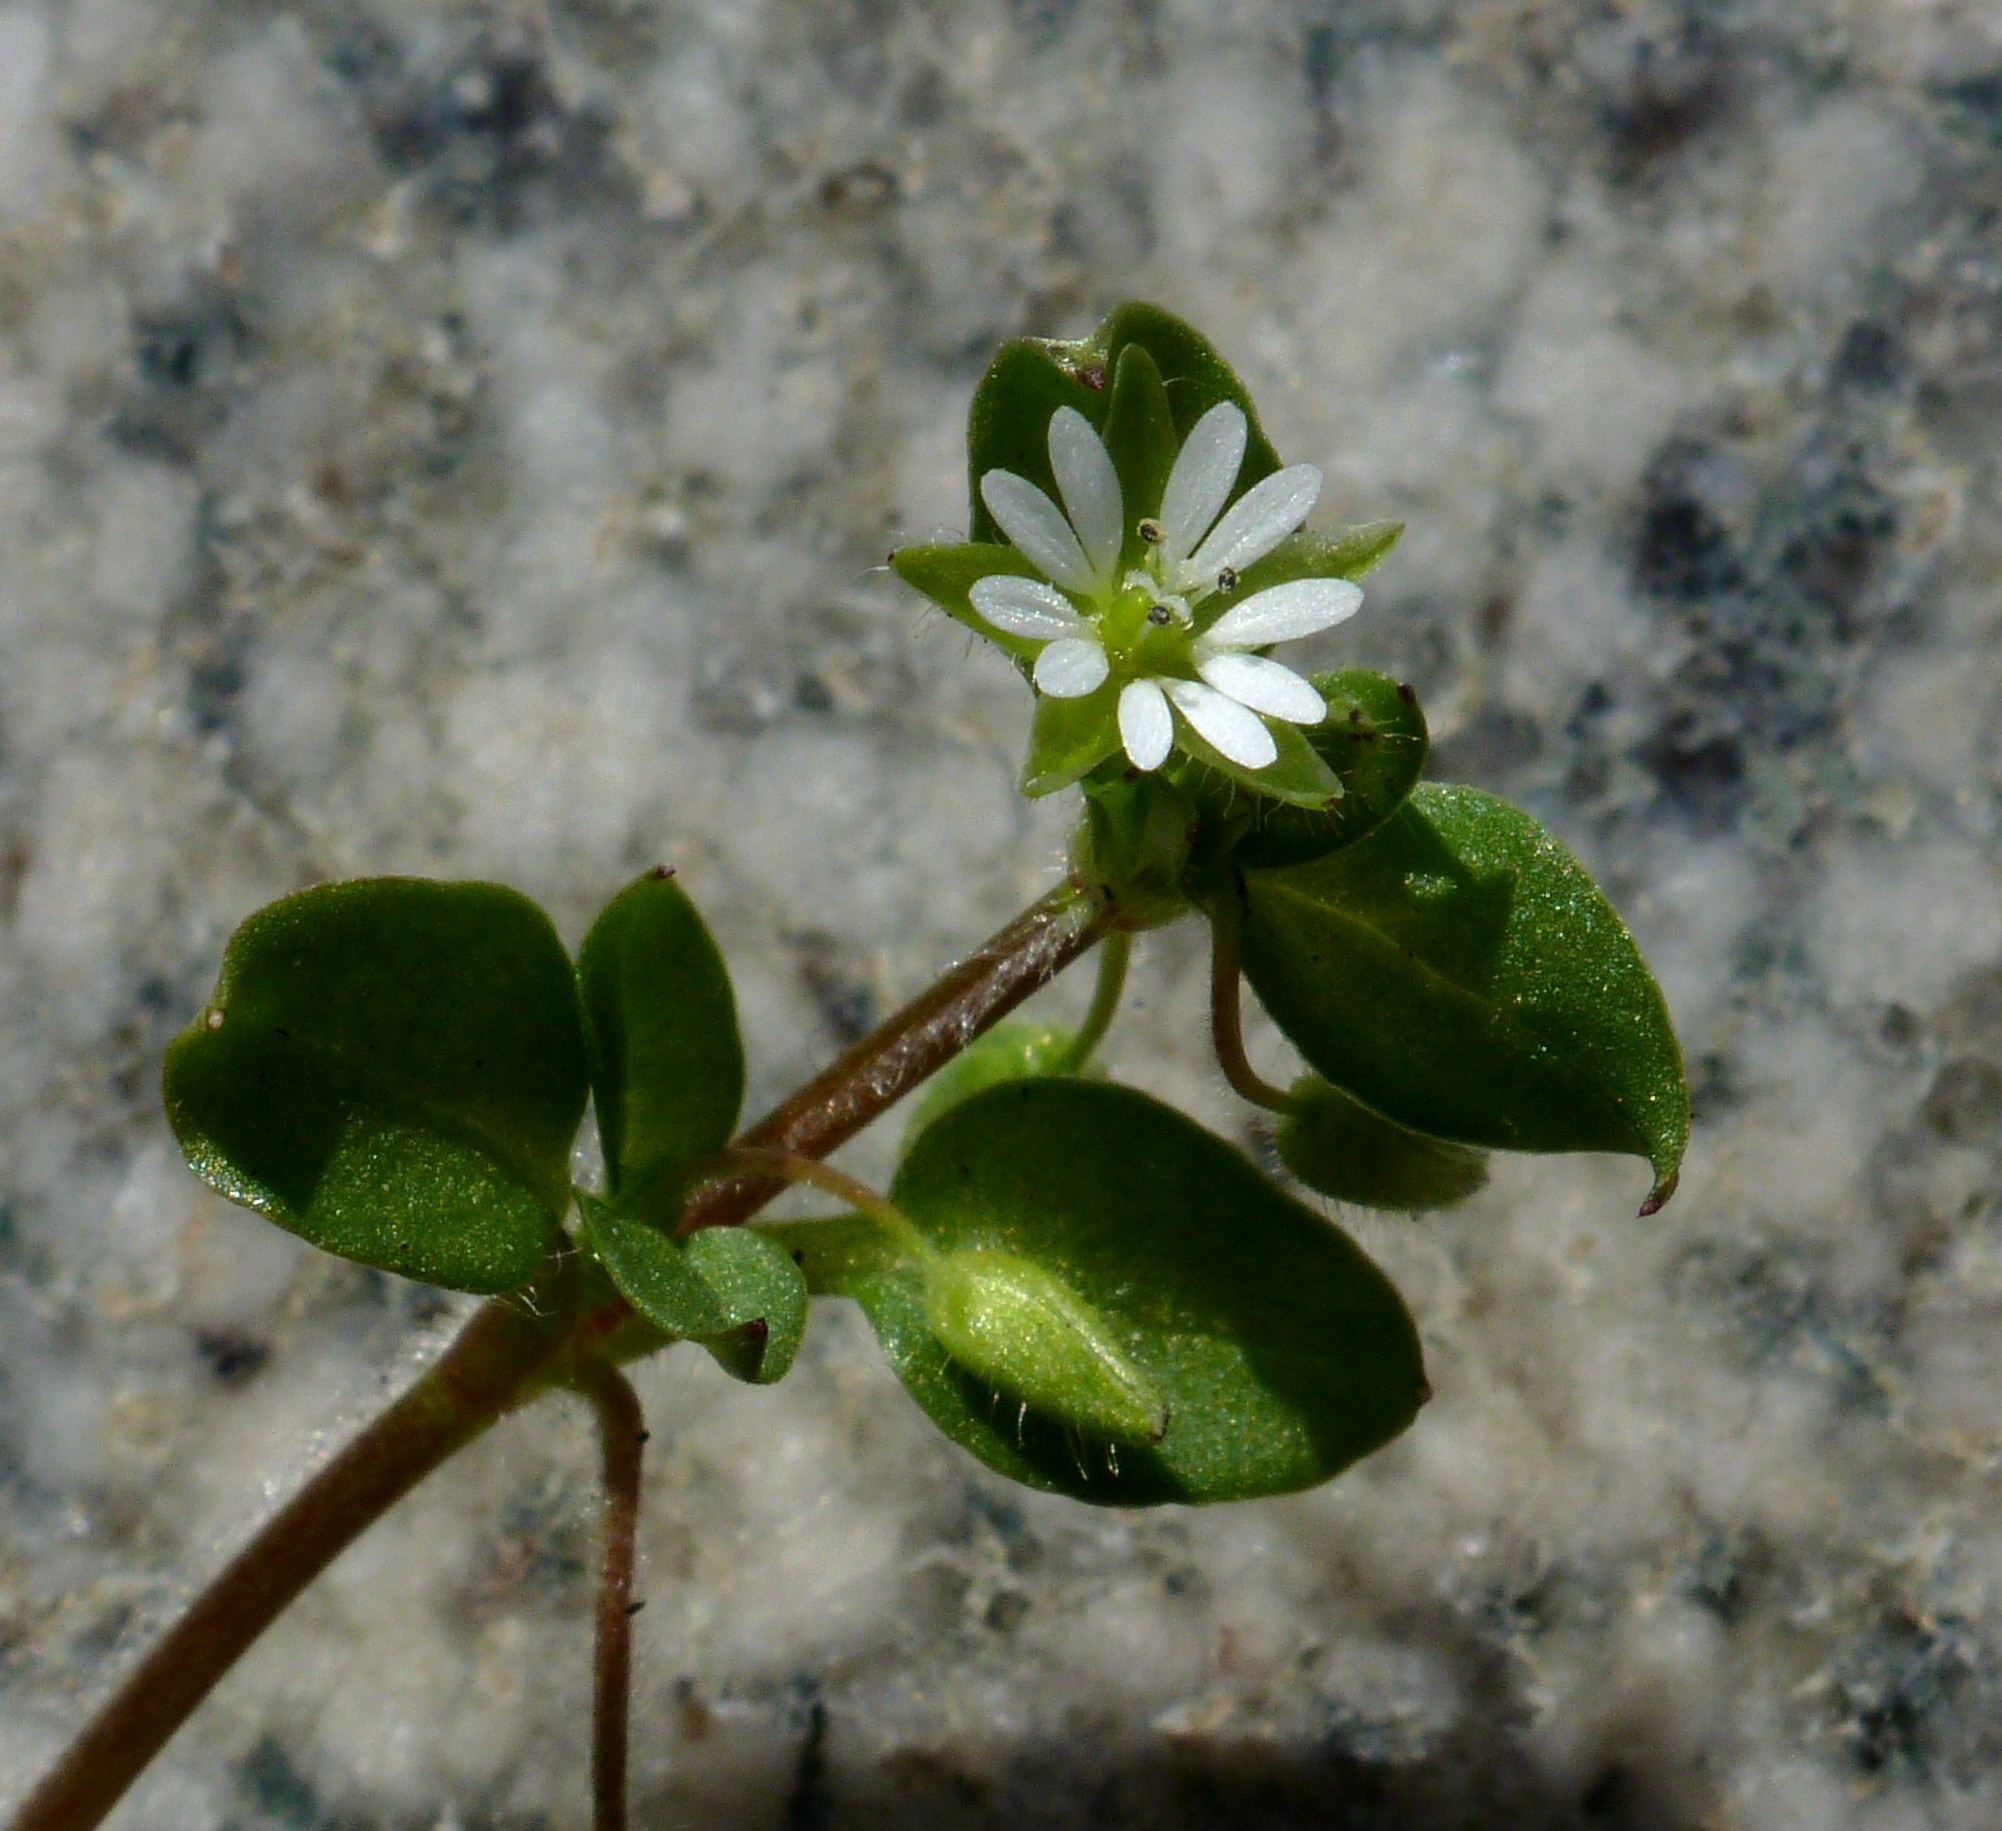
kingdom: Plantae
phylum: Tracheophyta
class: Magnoliopsida
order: Caryophyllales
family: Caryophyllaceae
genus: Stellaria
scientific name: Stellaria media
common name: Common chickweed
